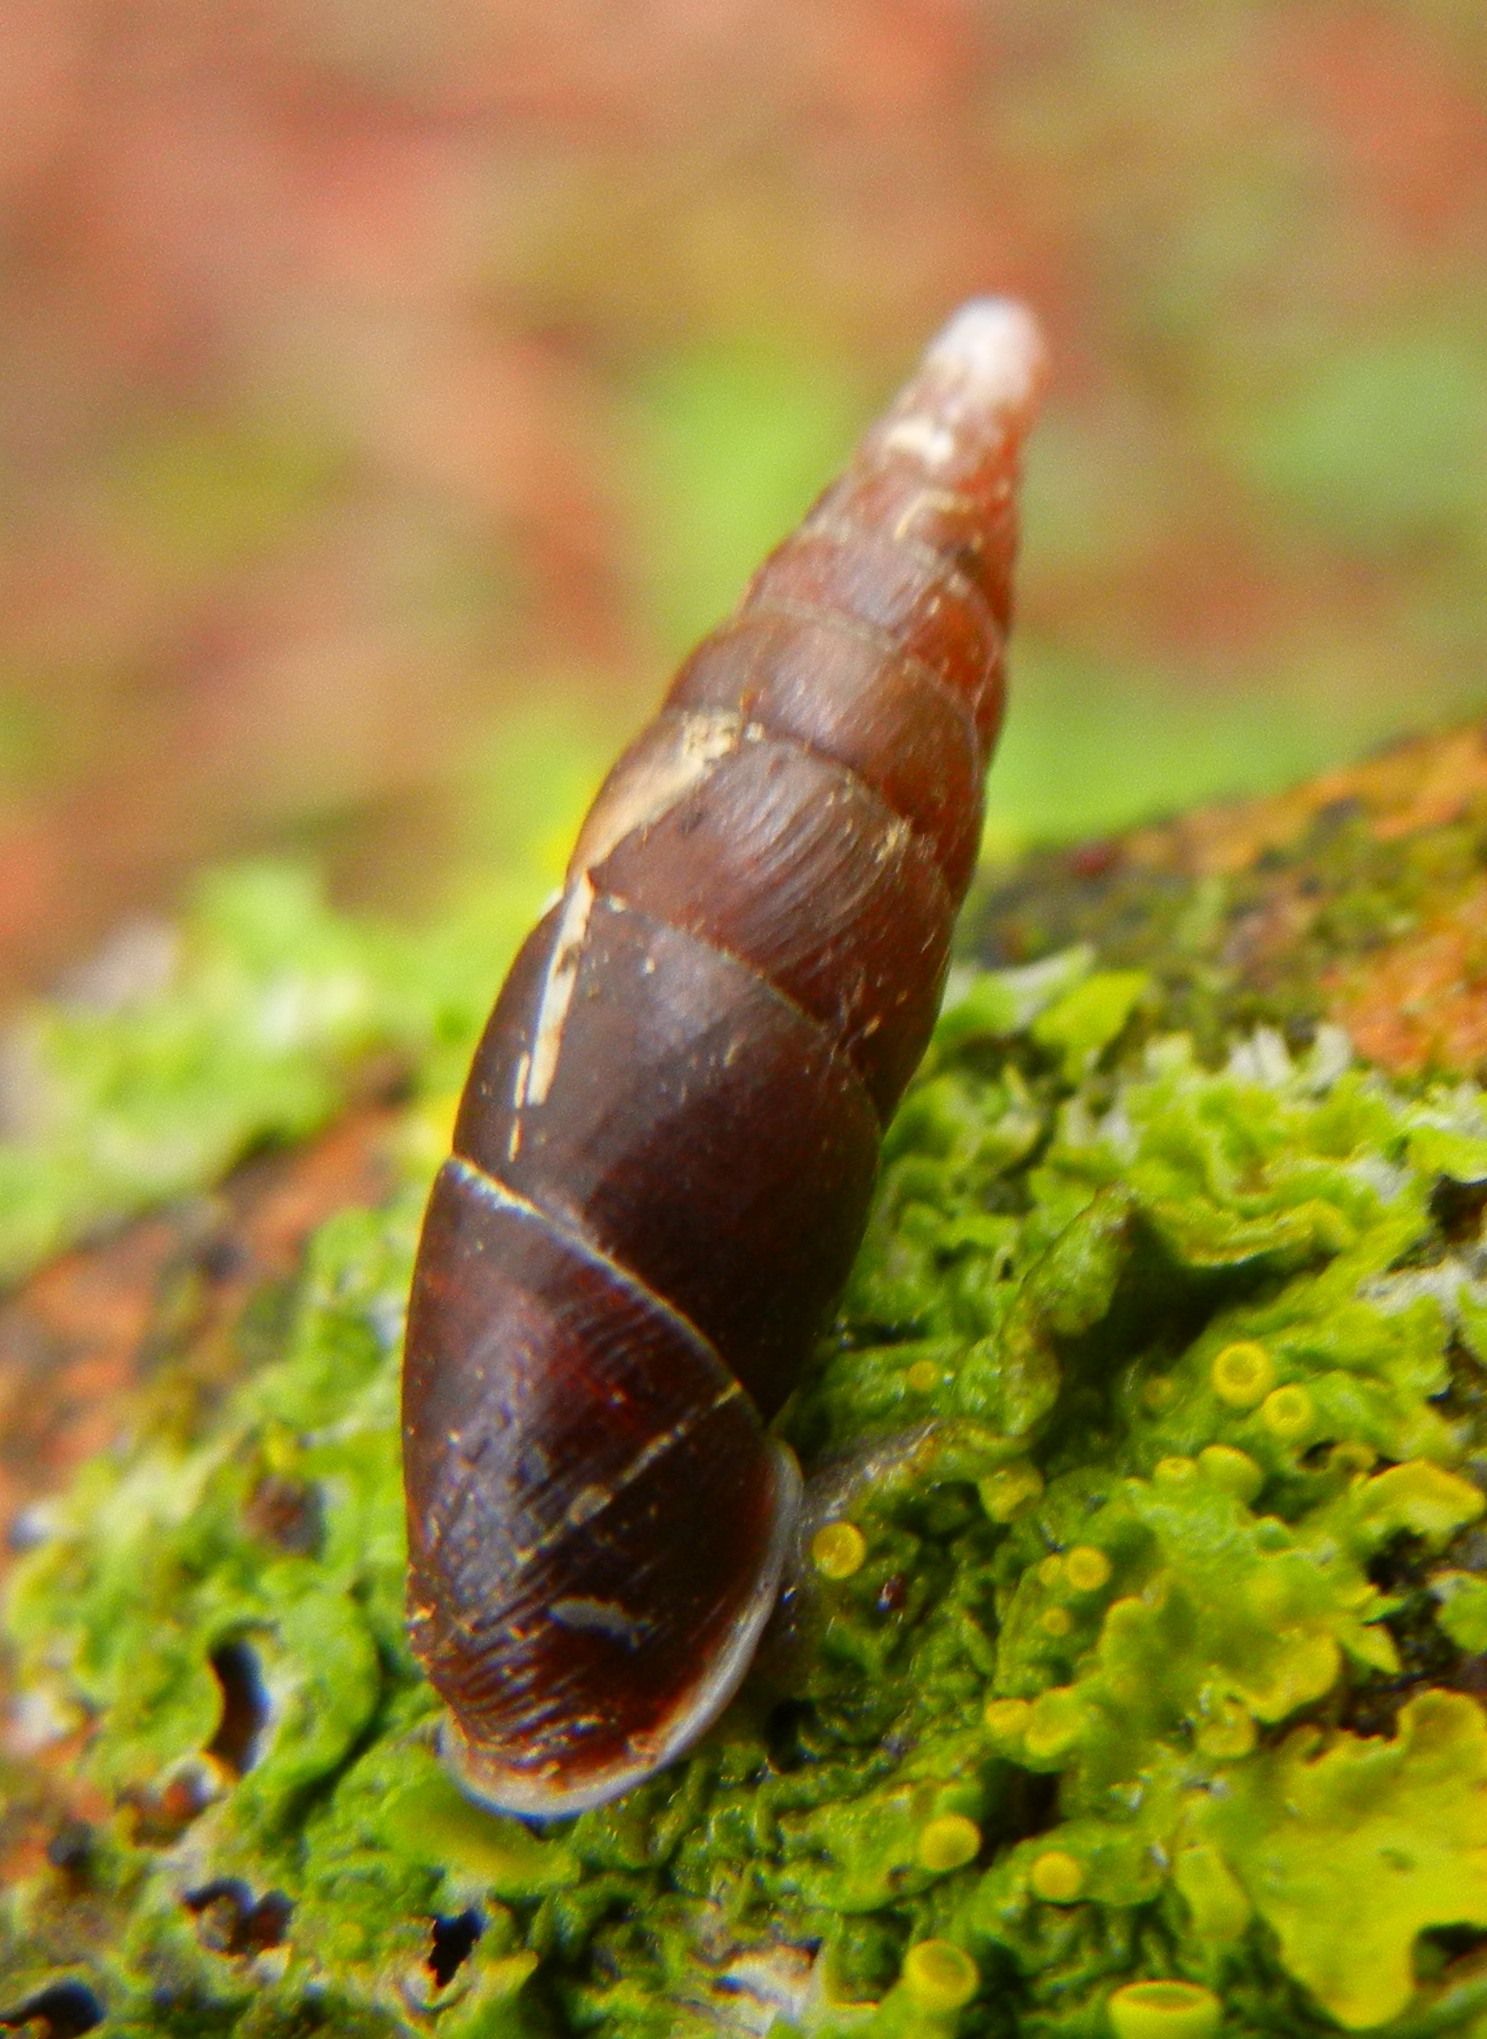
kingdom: Animalia
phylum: Mollusca
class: Gastropoda
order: Stylommatophora
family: Clausiliidae
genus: Cochlodina
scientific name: Cochlodina laminata
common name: Plaited door snail
